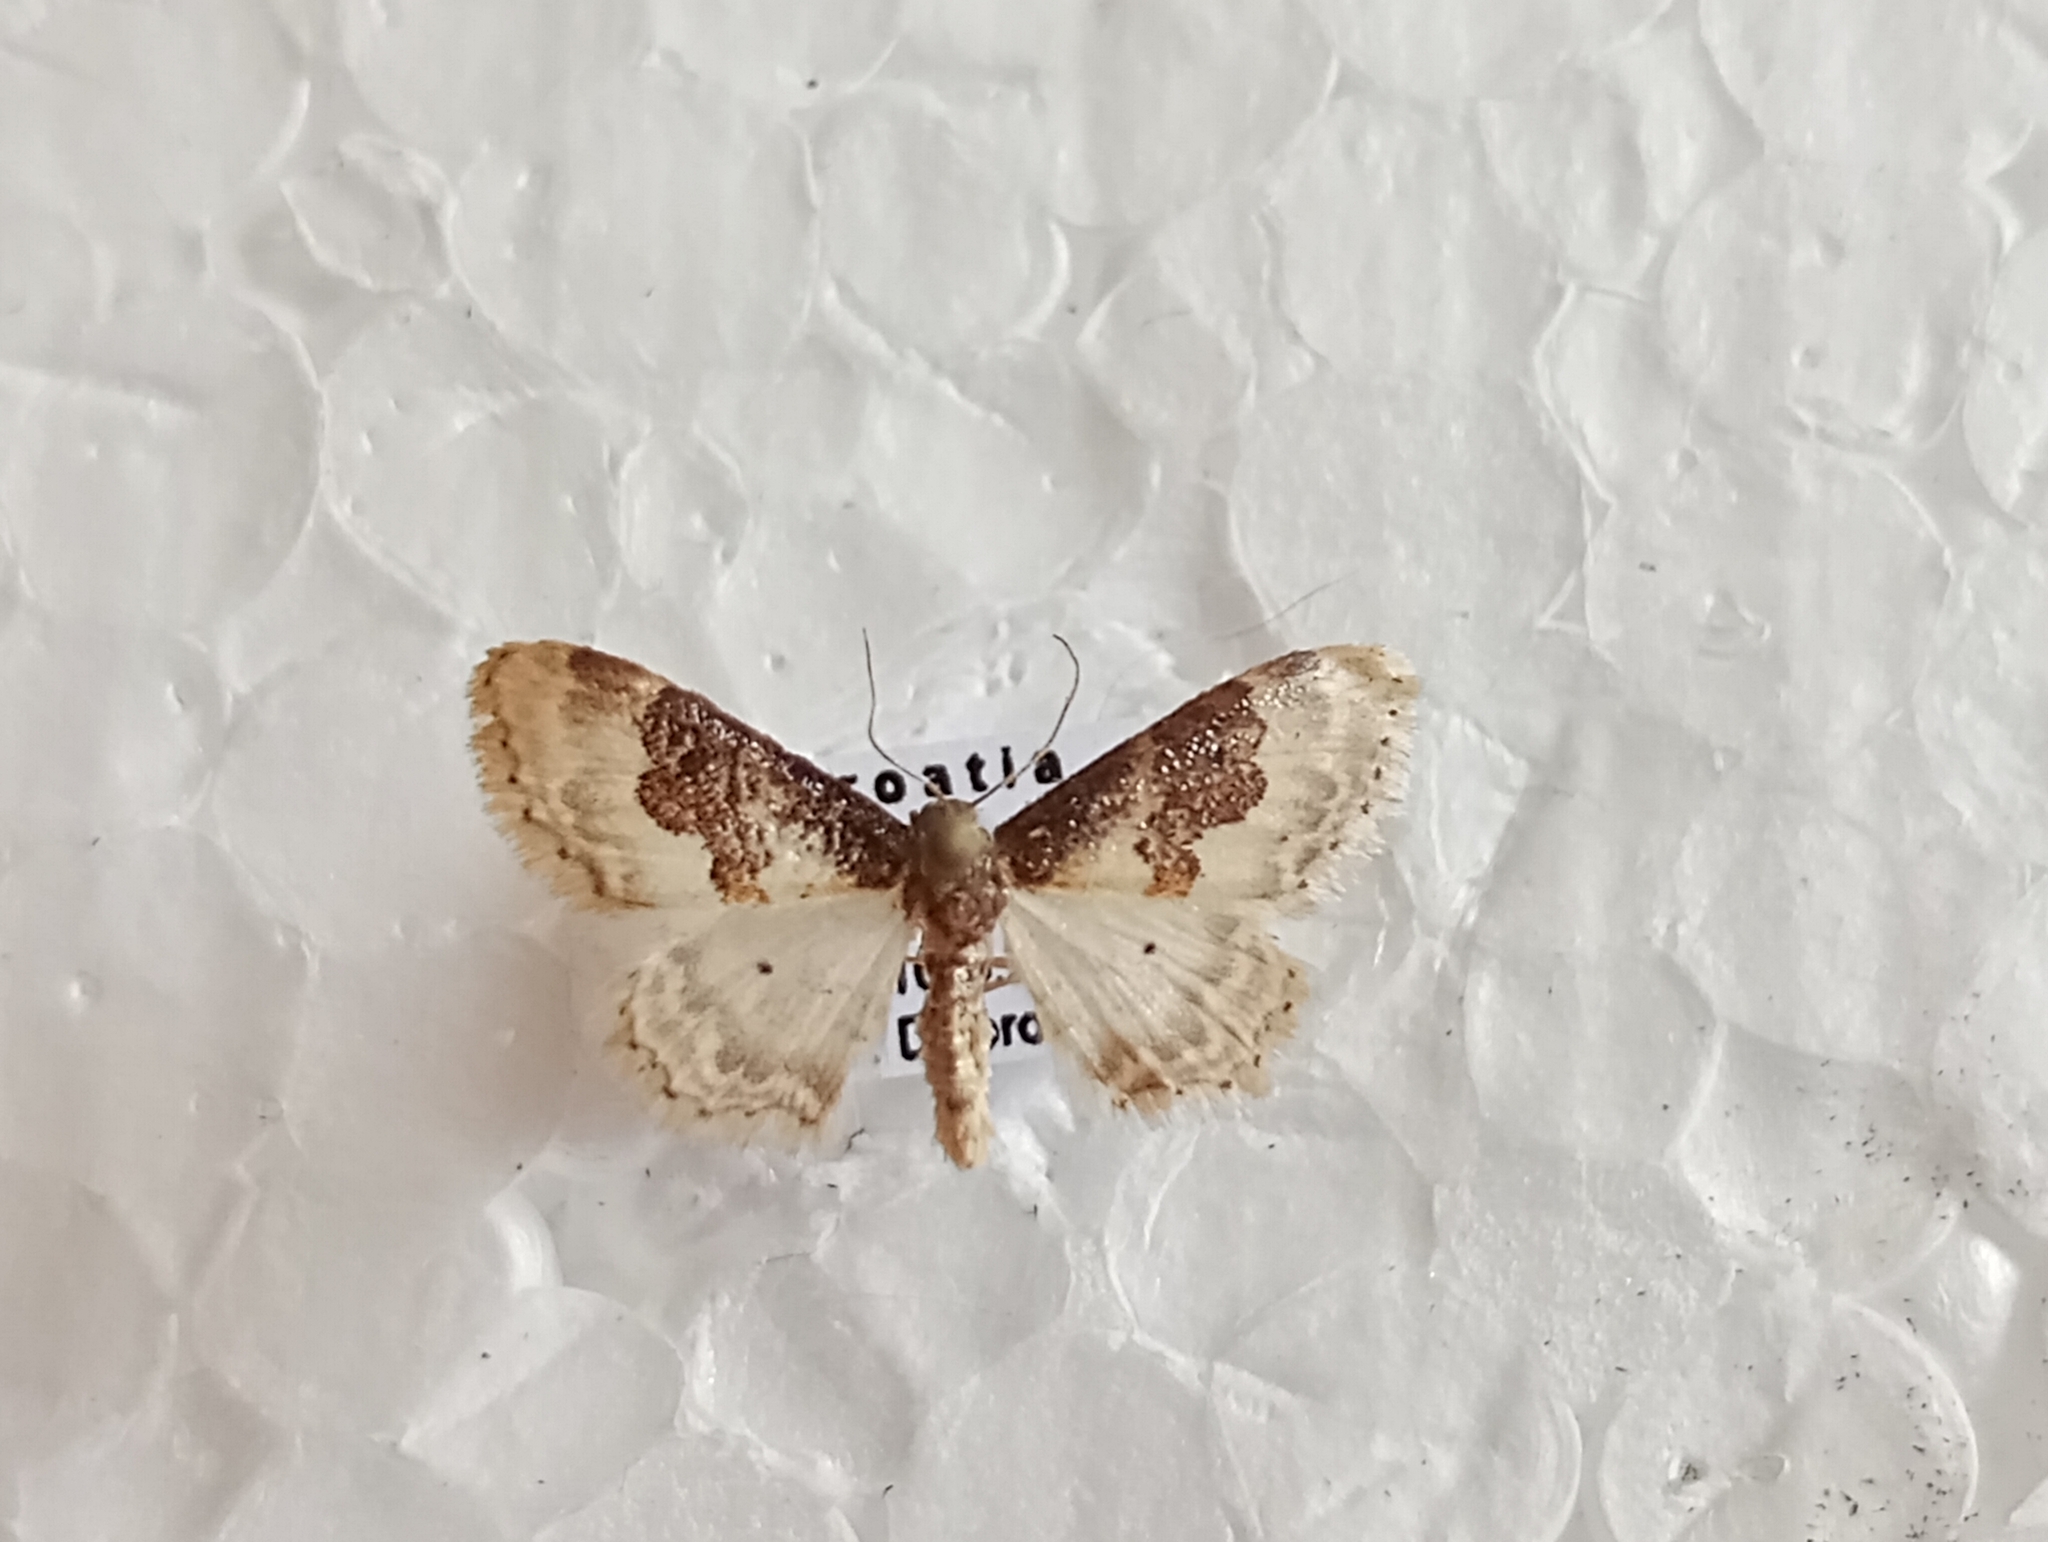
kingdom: Animalia
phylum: Arthropoda
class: Insecta
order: Lepidoptera
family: Geometridae
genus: Idaea
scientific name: Idaea rusticata
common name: Least carpet
